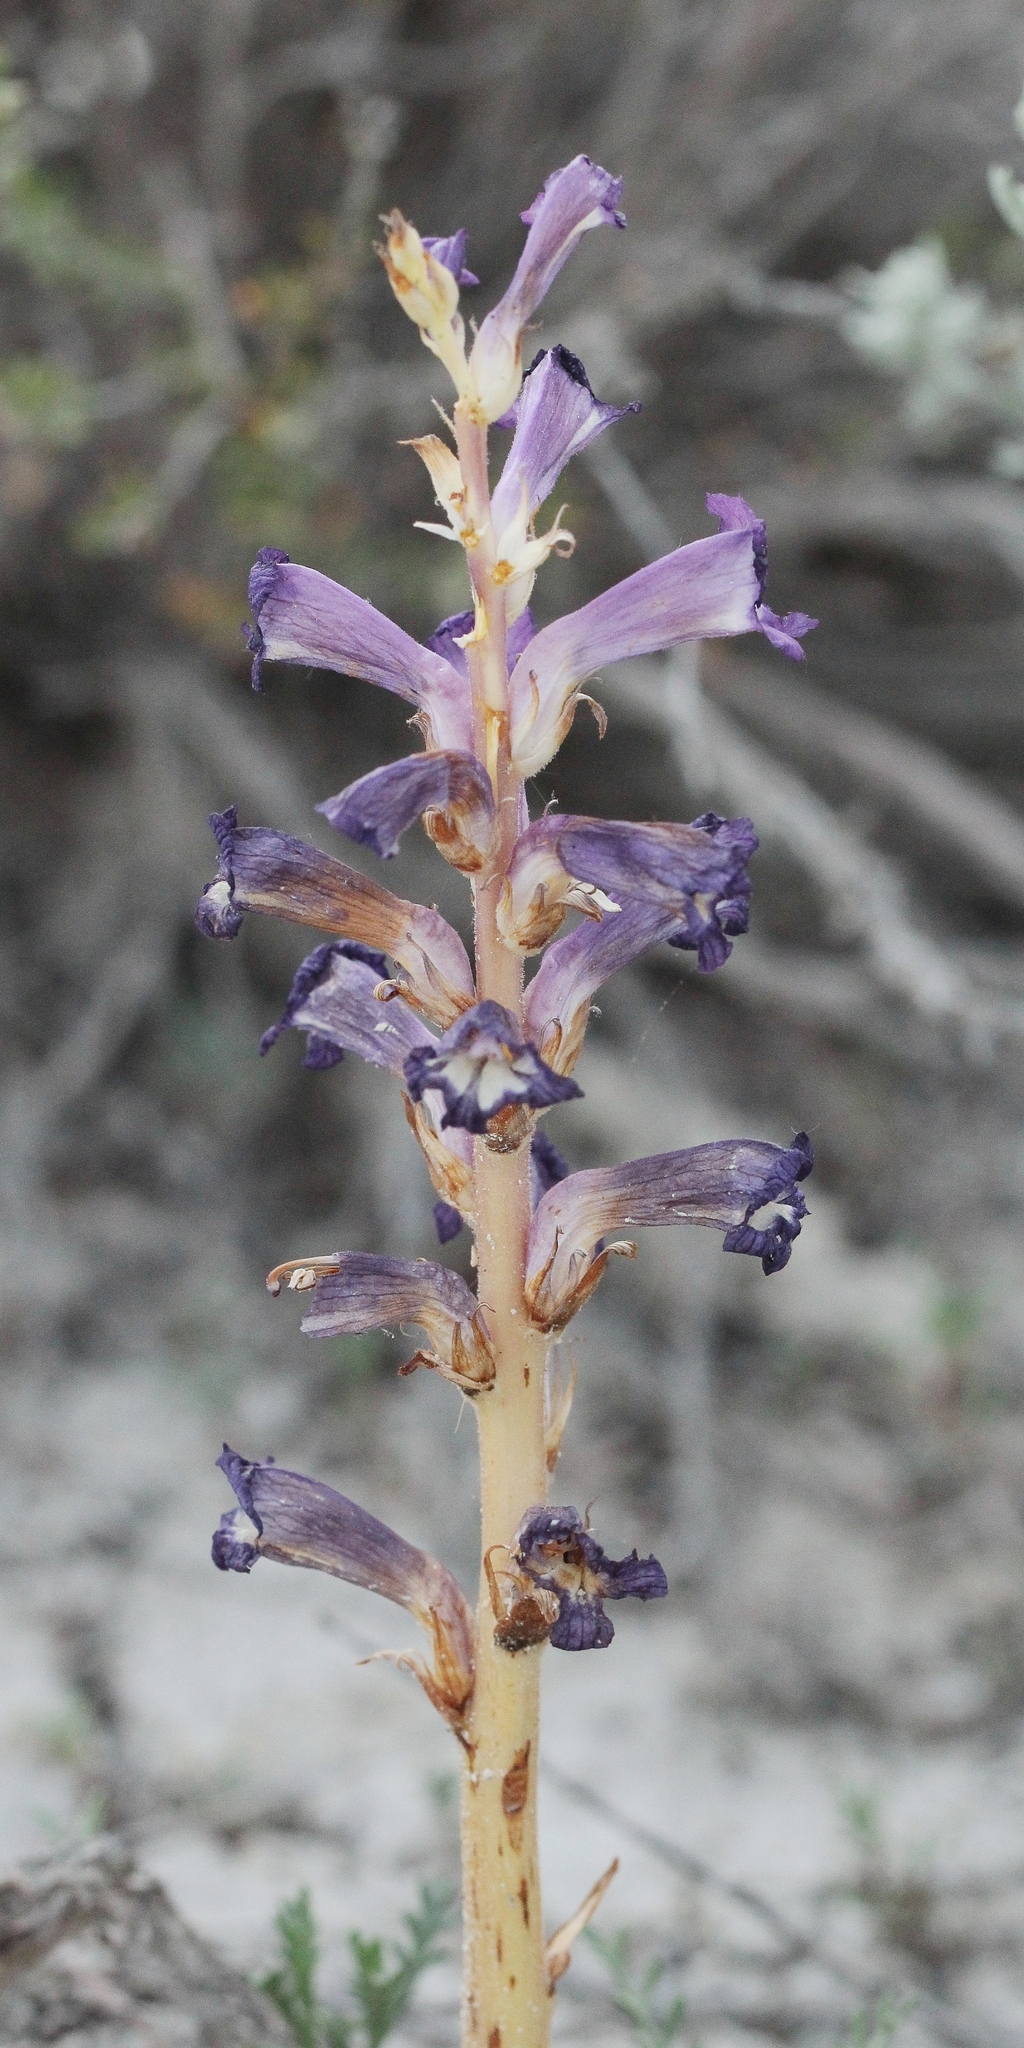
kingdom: Plantae
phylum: Tracheophyta
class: Magnoliopsida
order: Lamiales
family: Orobanchaceae
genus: Orobanche
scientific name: Orobanche grenieri
